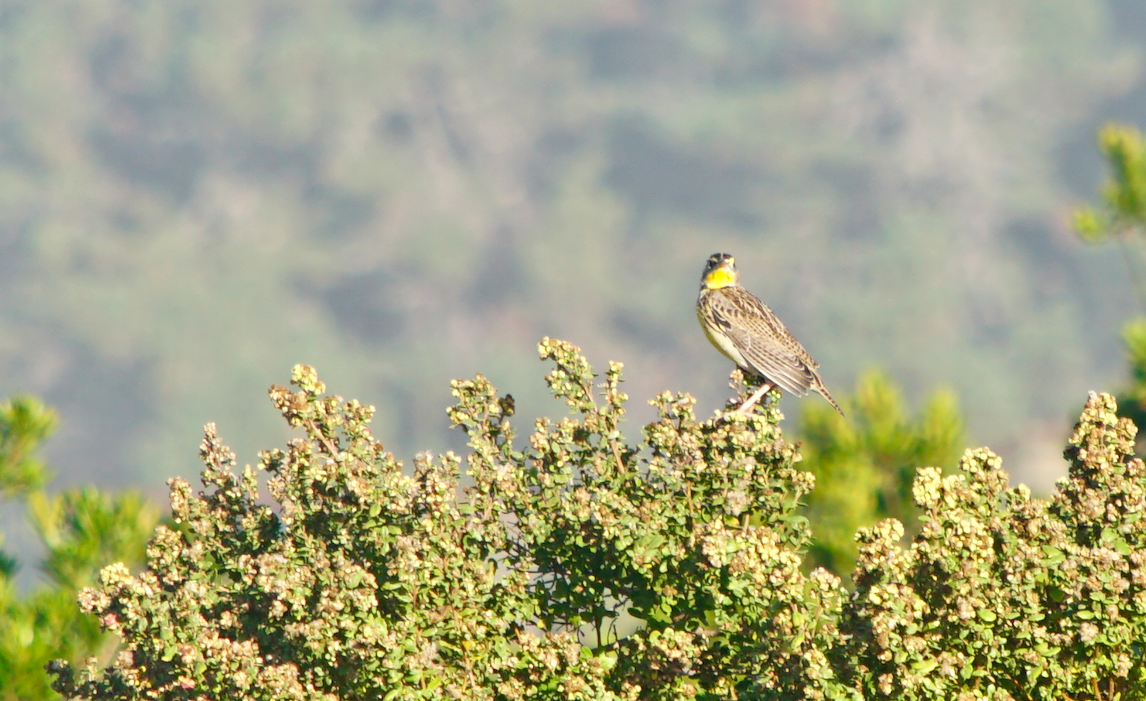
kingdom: Animalia
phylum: Chordata
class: Aves
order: Passeriformes
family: Icteridae
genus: Sturnella
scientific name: Sturnella neglecta
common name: Western meadowlark
